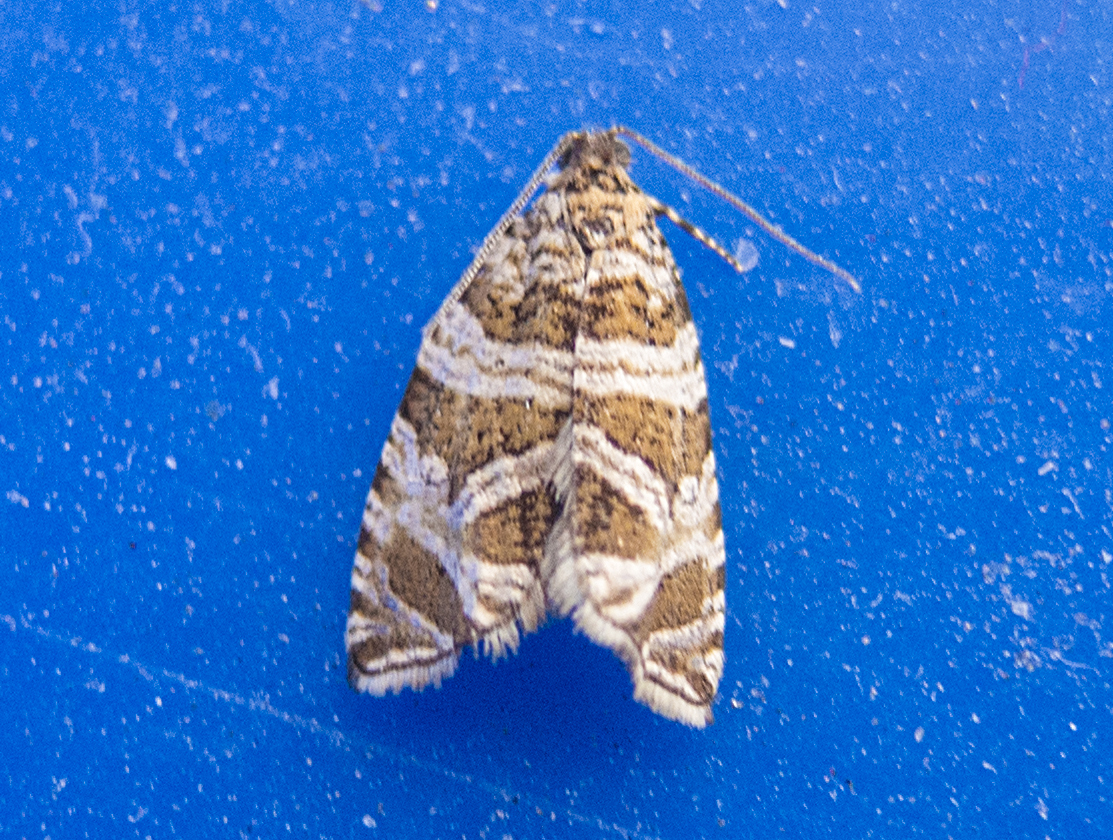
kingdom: Animalia
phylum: Arthropoda
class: Insecta
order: Lepidoptera
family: Tortricidae
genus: Syricoris
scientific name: Syricoris rivulana
